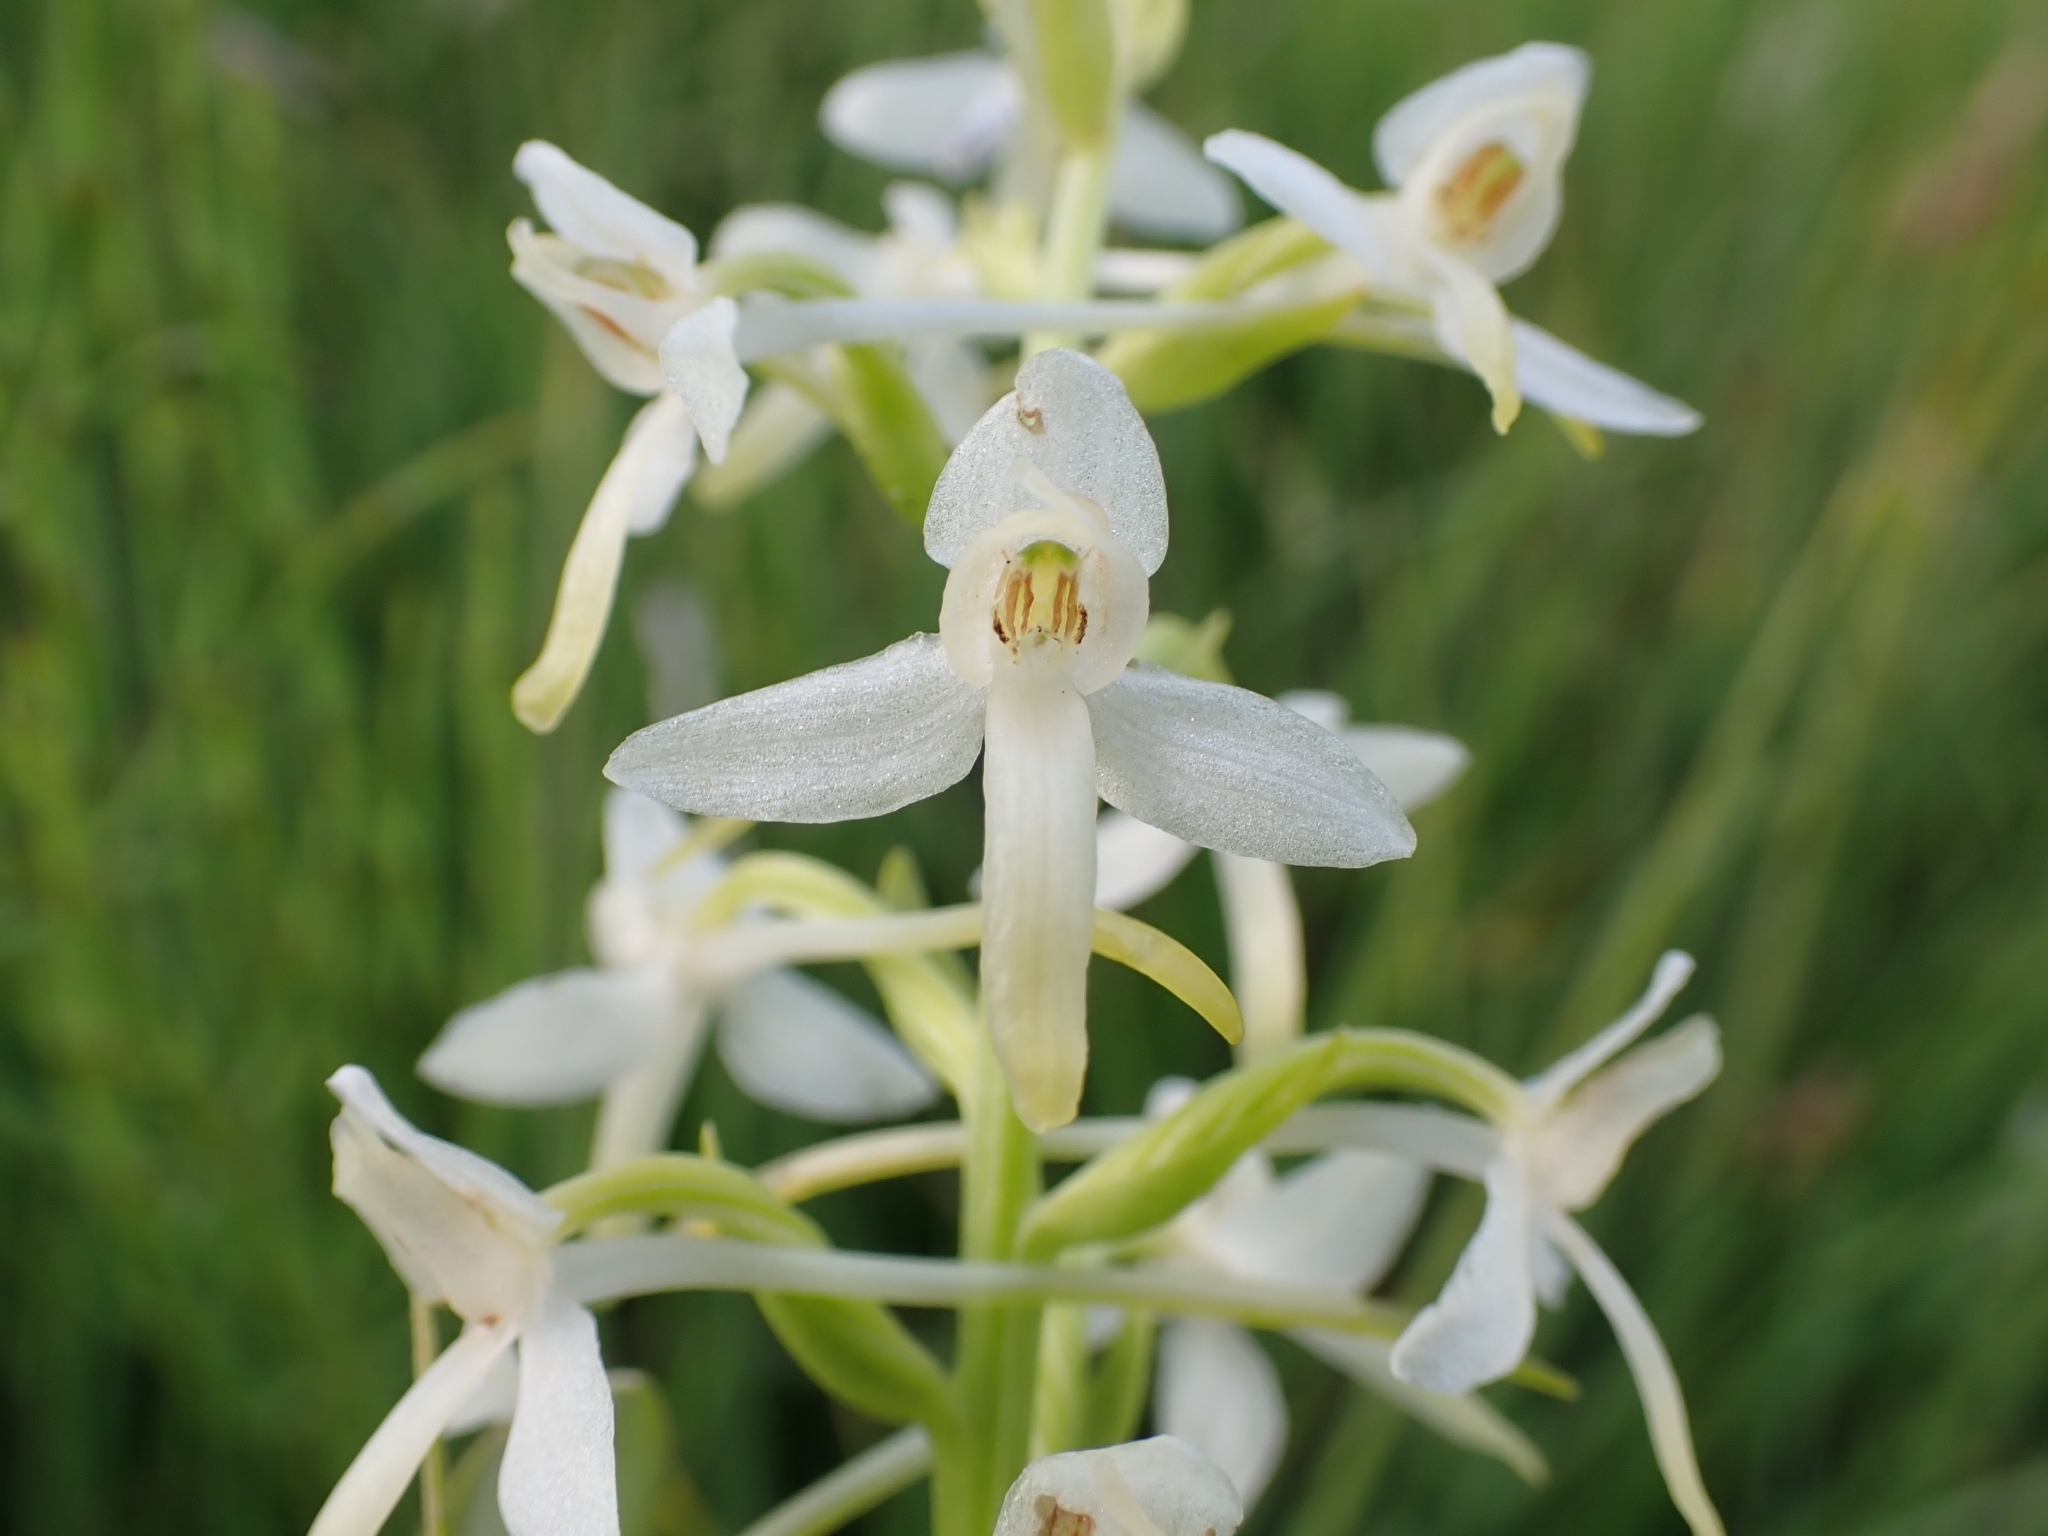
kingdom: Plantae
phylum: Tracheophyta
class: Liliopsida
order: Asparagales
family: Orchidaceae
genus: Platanthera
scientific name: Platanthera bifolia
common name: Lesser butterfly-orchid
